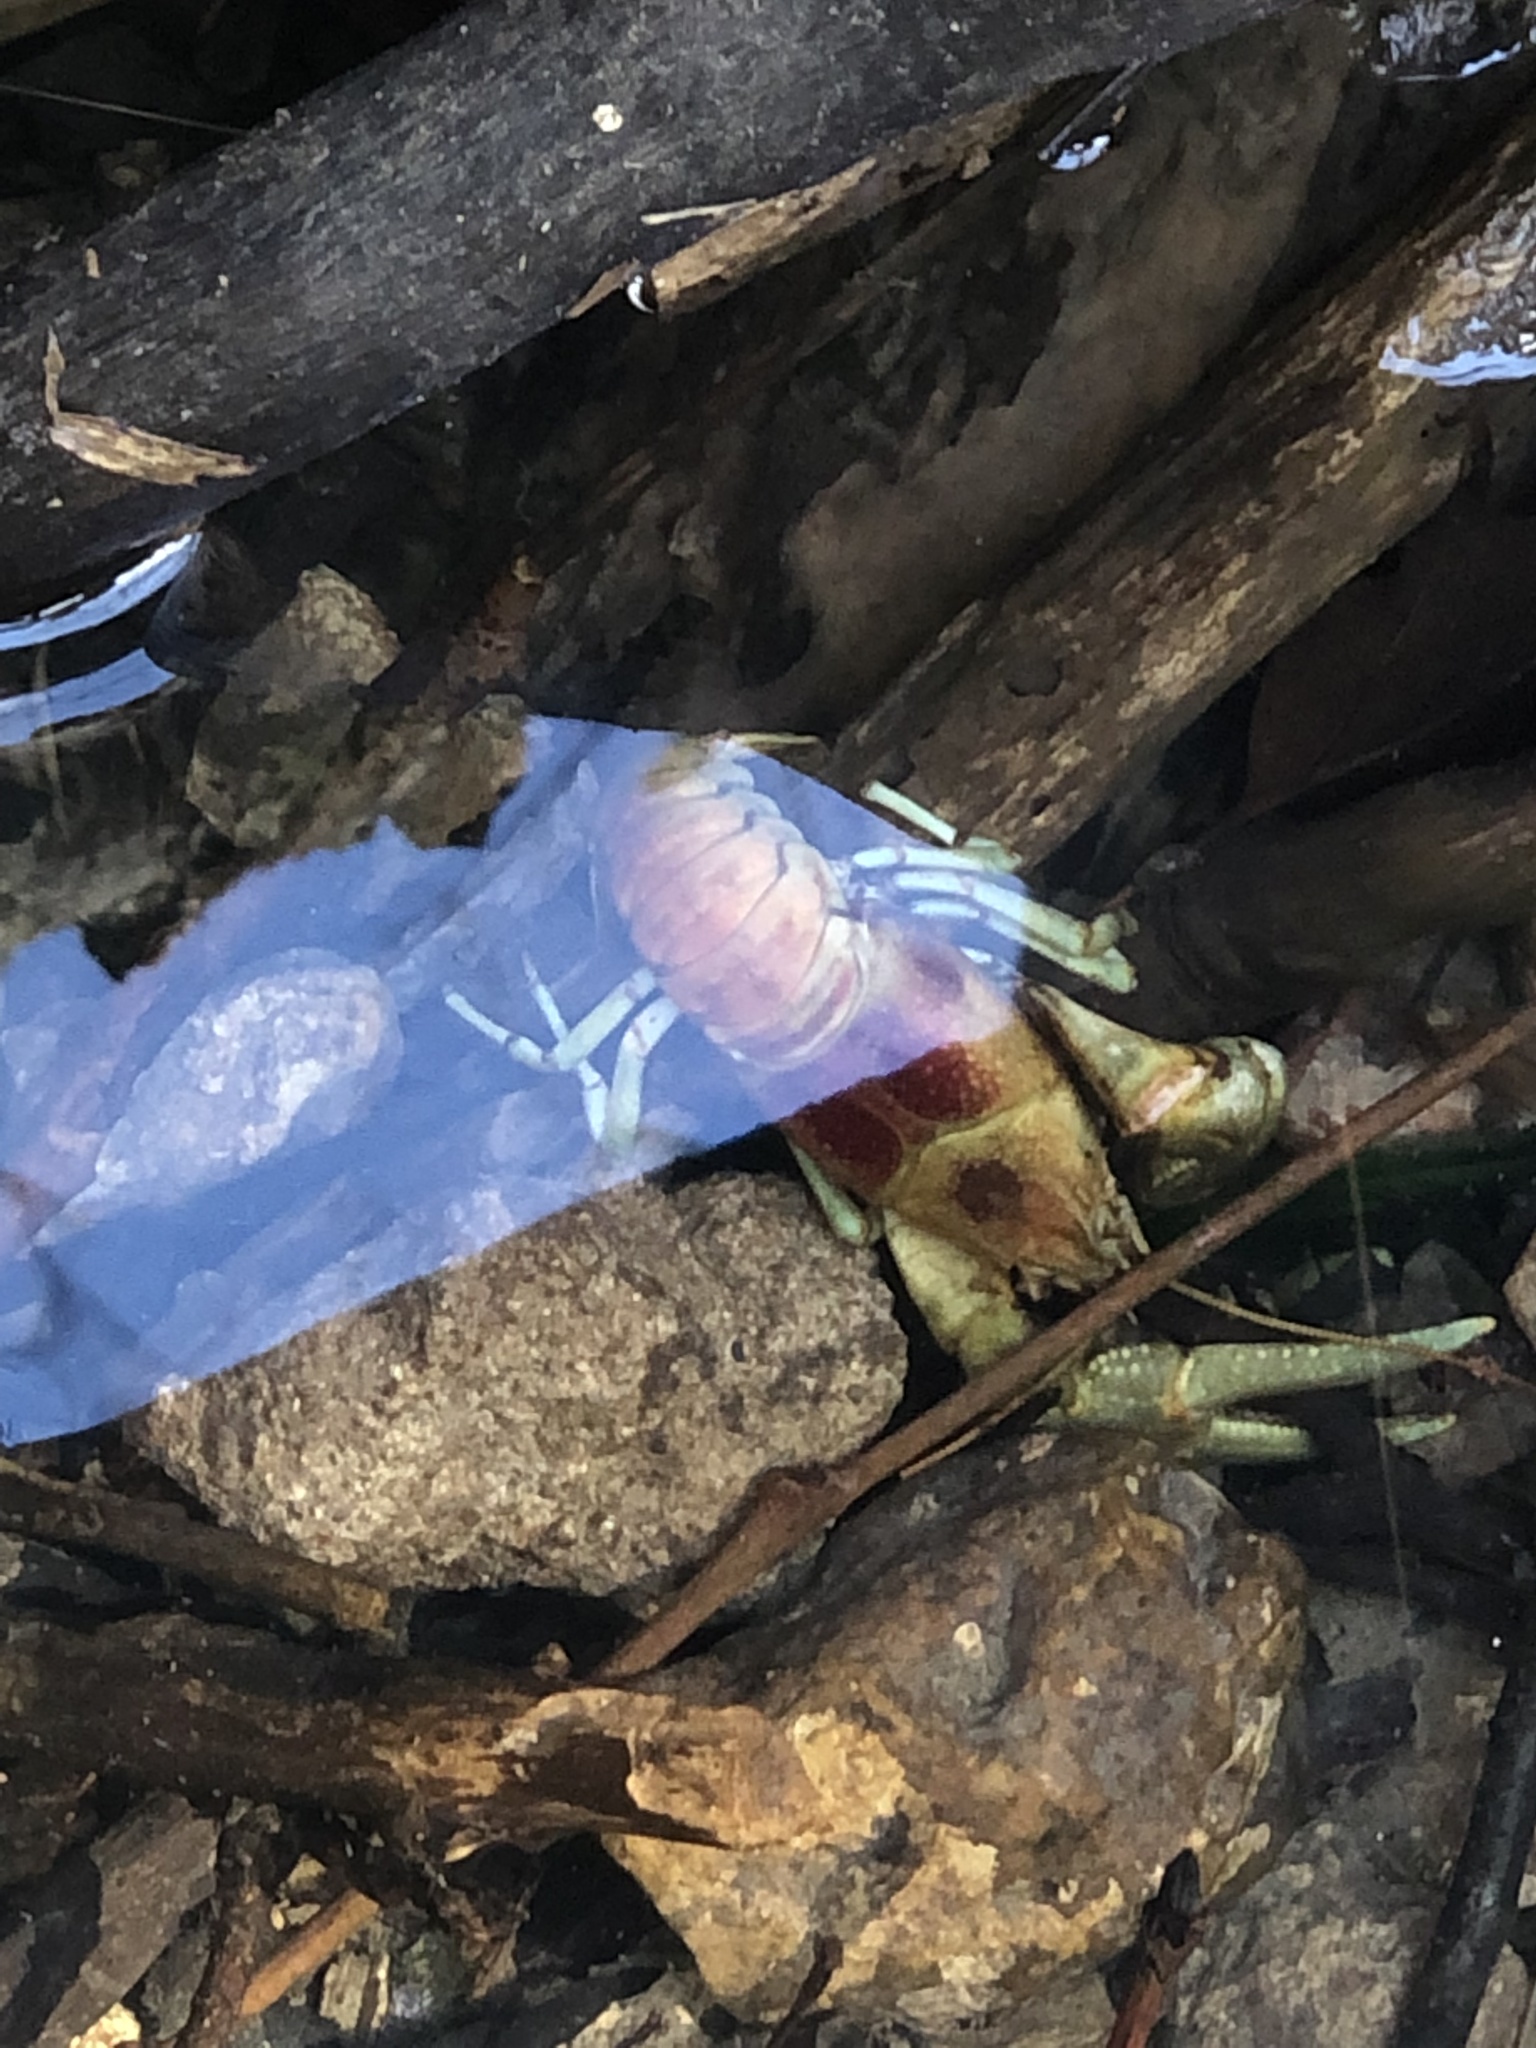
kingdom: Animalia
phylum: Arthropoda
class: Malacostraca
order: Decapoda
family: Cambaridae
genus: Faxonius
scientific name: Faxonius rusticus
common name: Rusty crayfish
